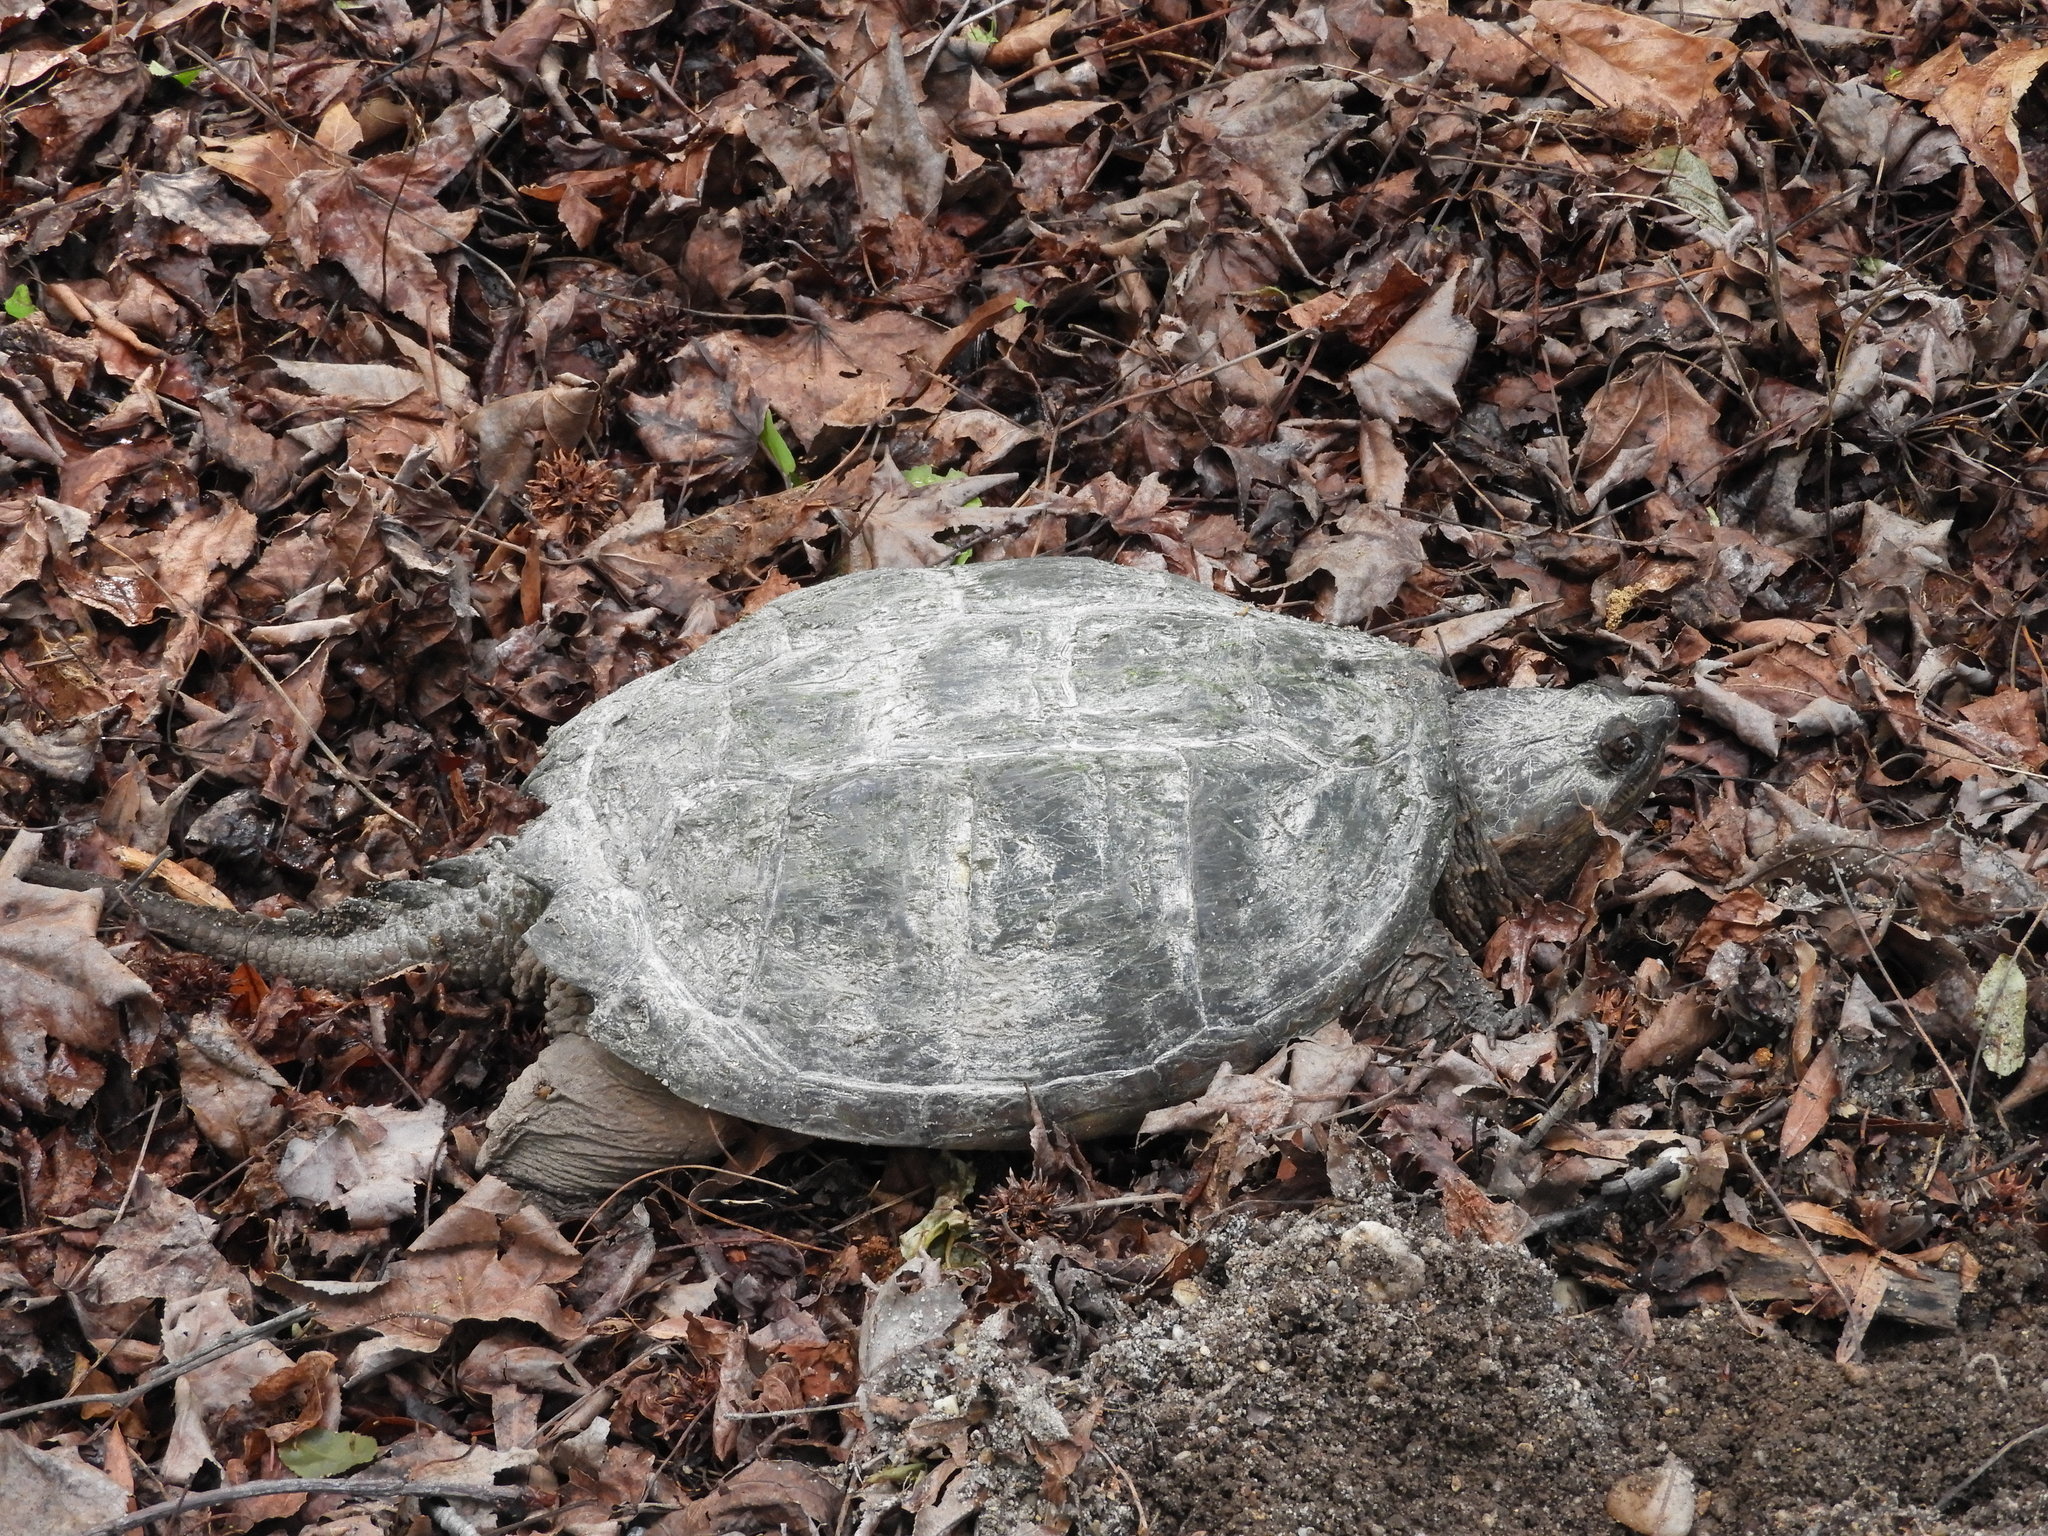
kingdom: Animalia
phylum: Chordata
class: Testudines
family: Chelydridae
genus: Chelydra
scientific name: Chelydra serpentina
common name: Common snapping turtle
